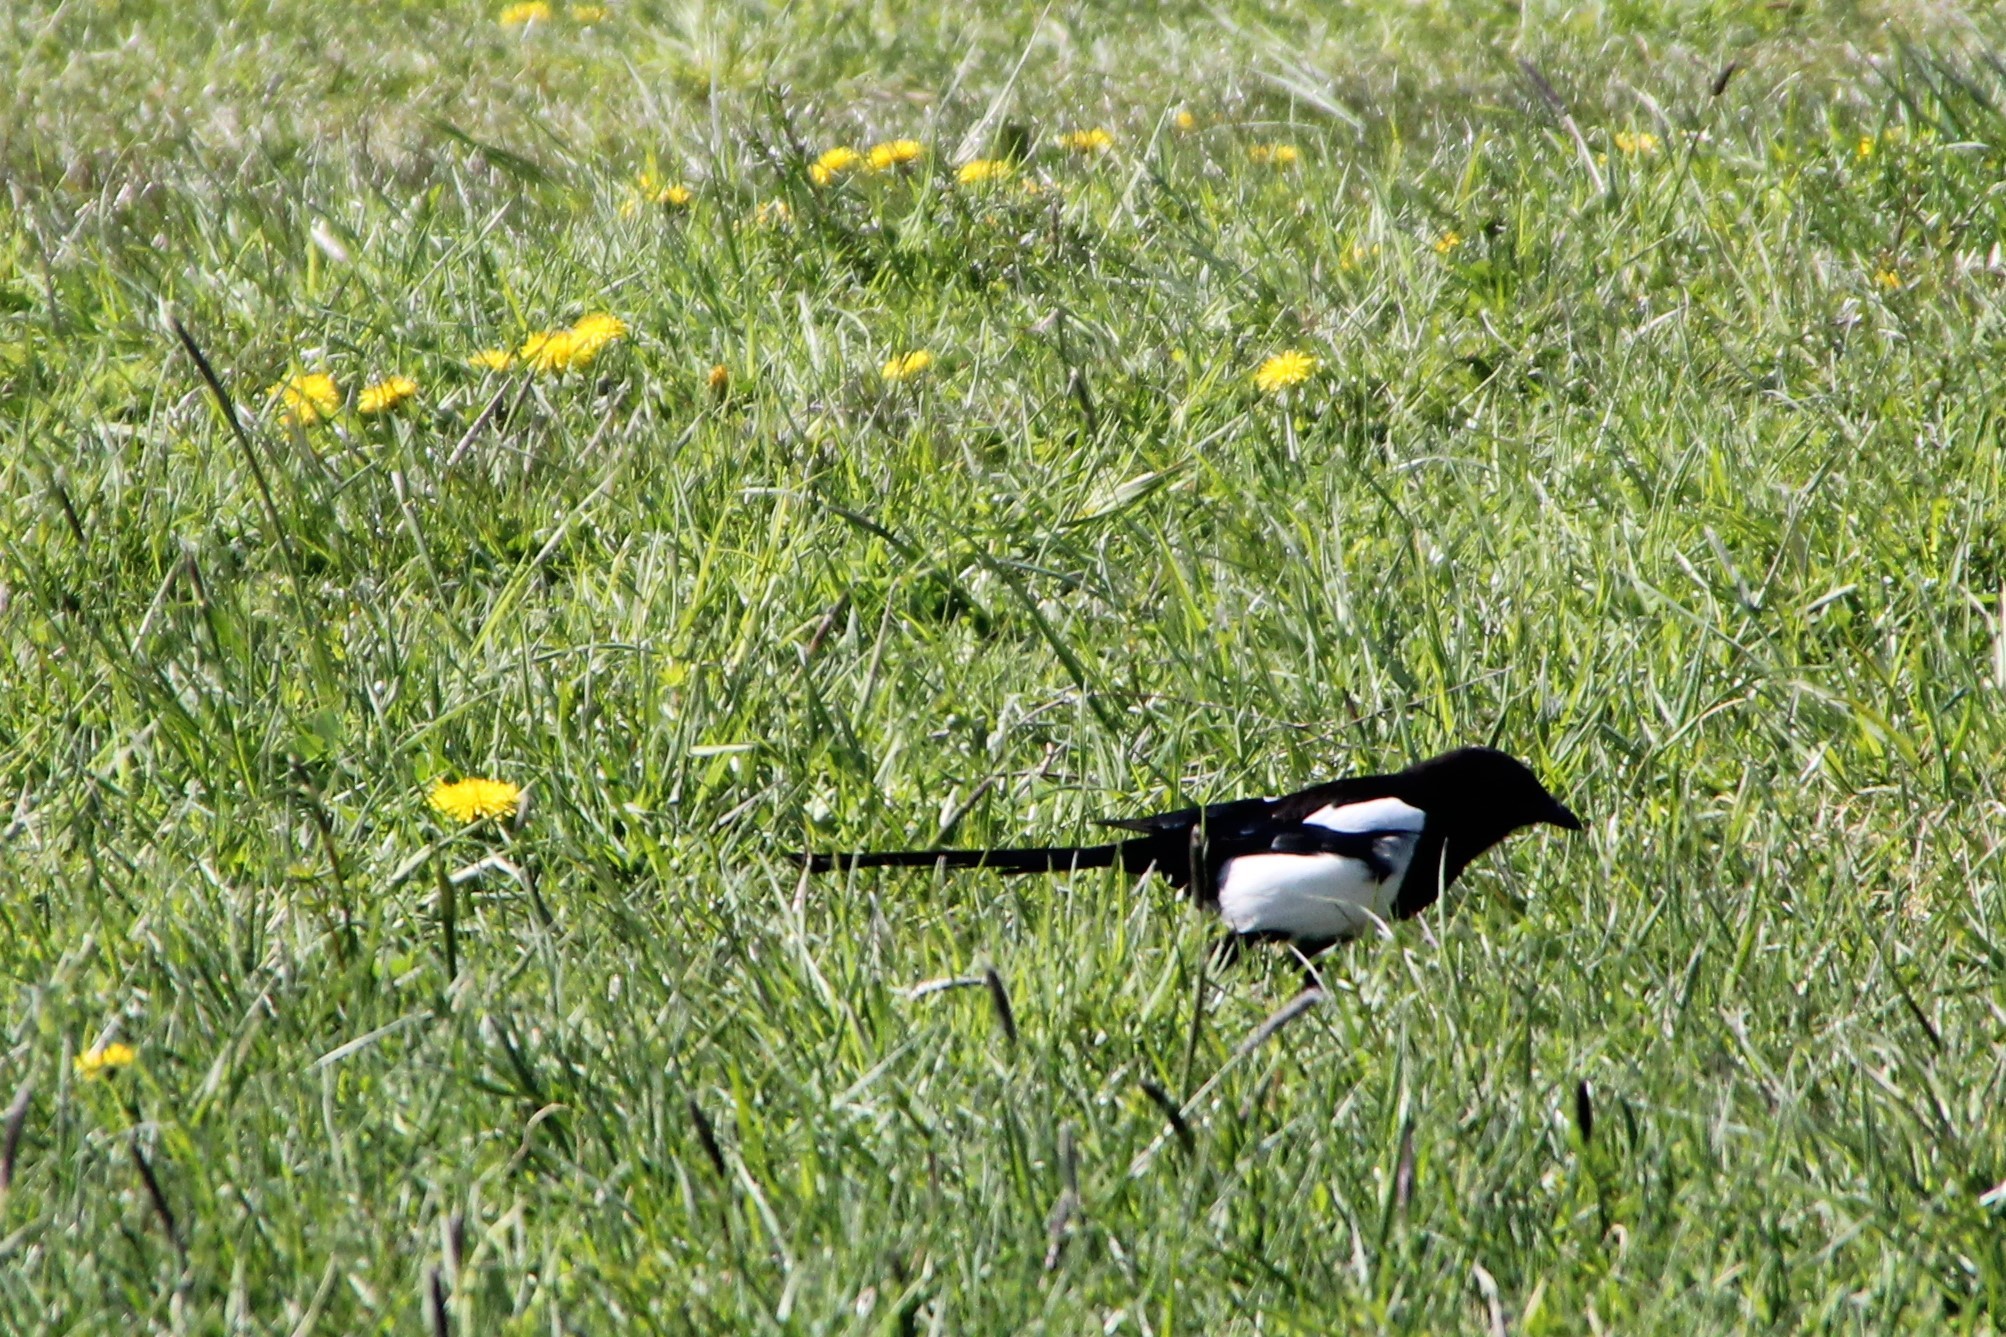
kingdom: Animalia
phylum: Chordata
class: Aves
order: Passeriformes
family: Corvidae
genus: Pica
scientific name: Pica pica
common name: Eurasian magpie
